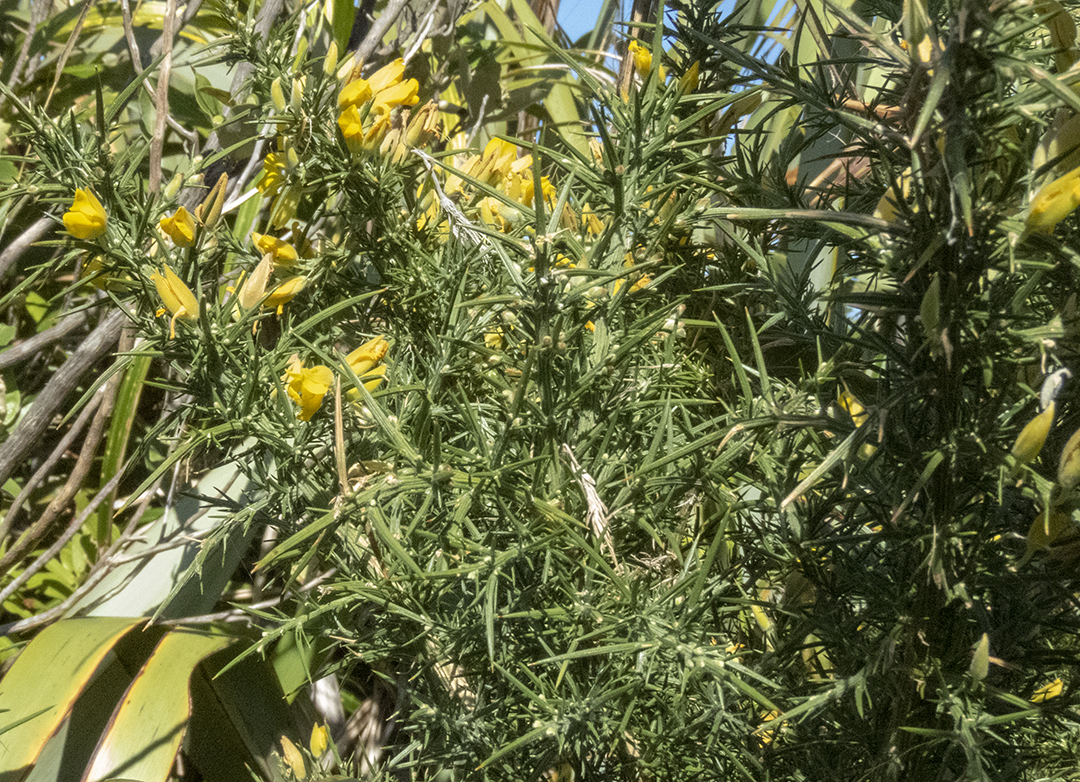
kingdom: Plantae
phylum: Tracheophyta
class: Magnoliopsida
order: Fabales
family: Fabaceae
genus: Ulex
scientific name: Ulex europaeus
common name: Common gorse
